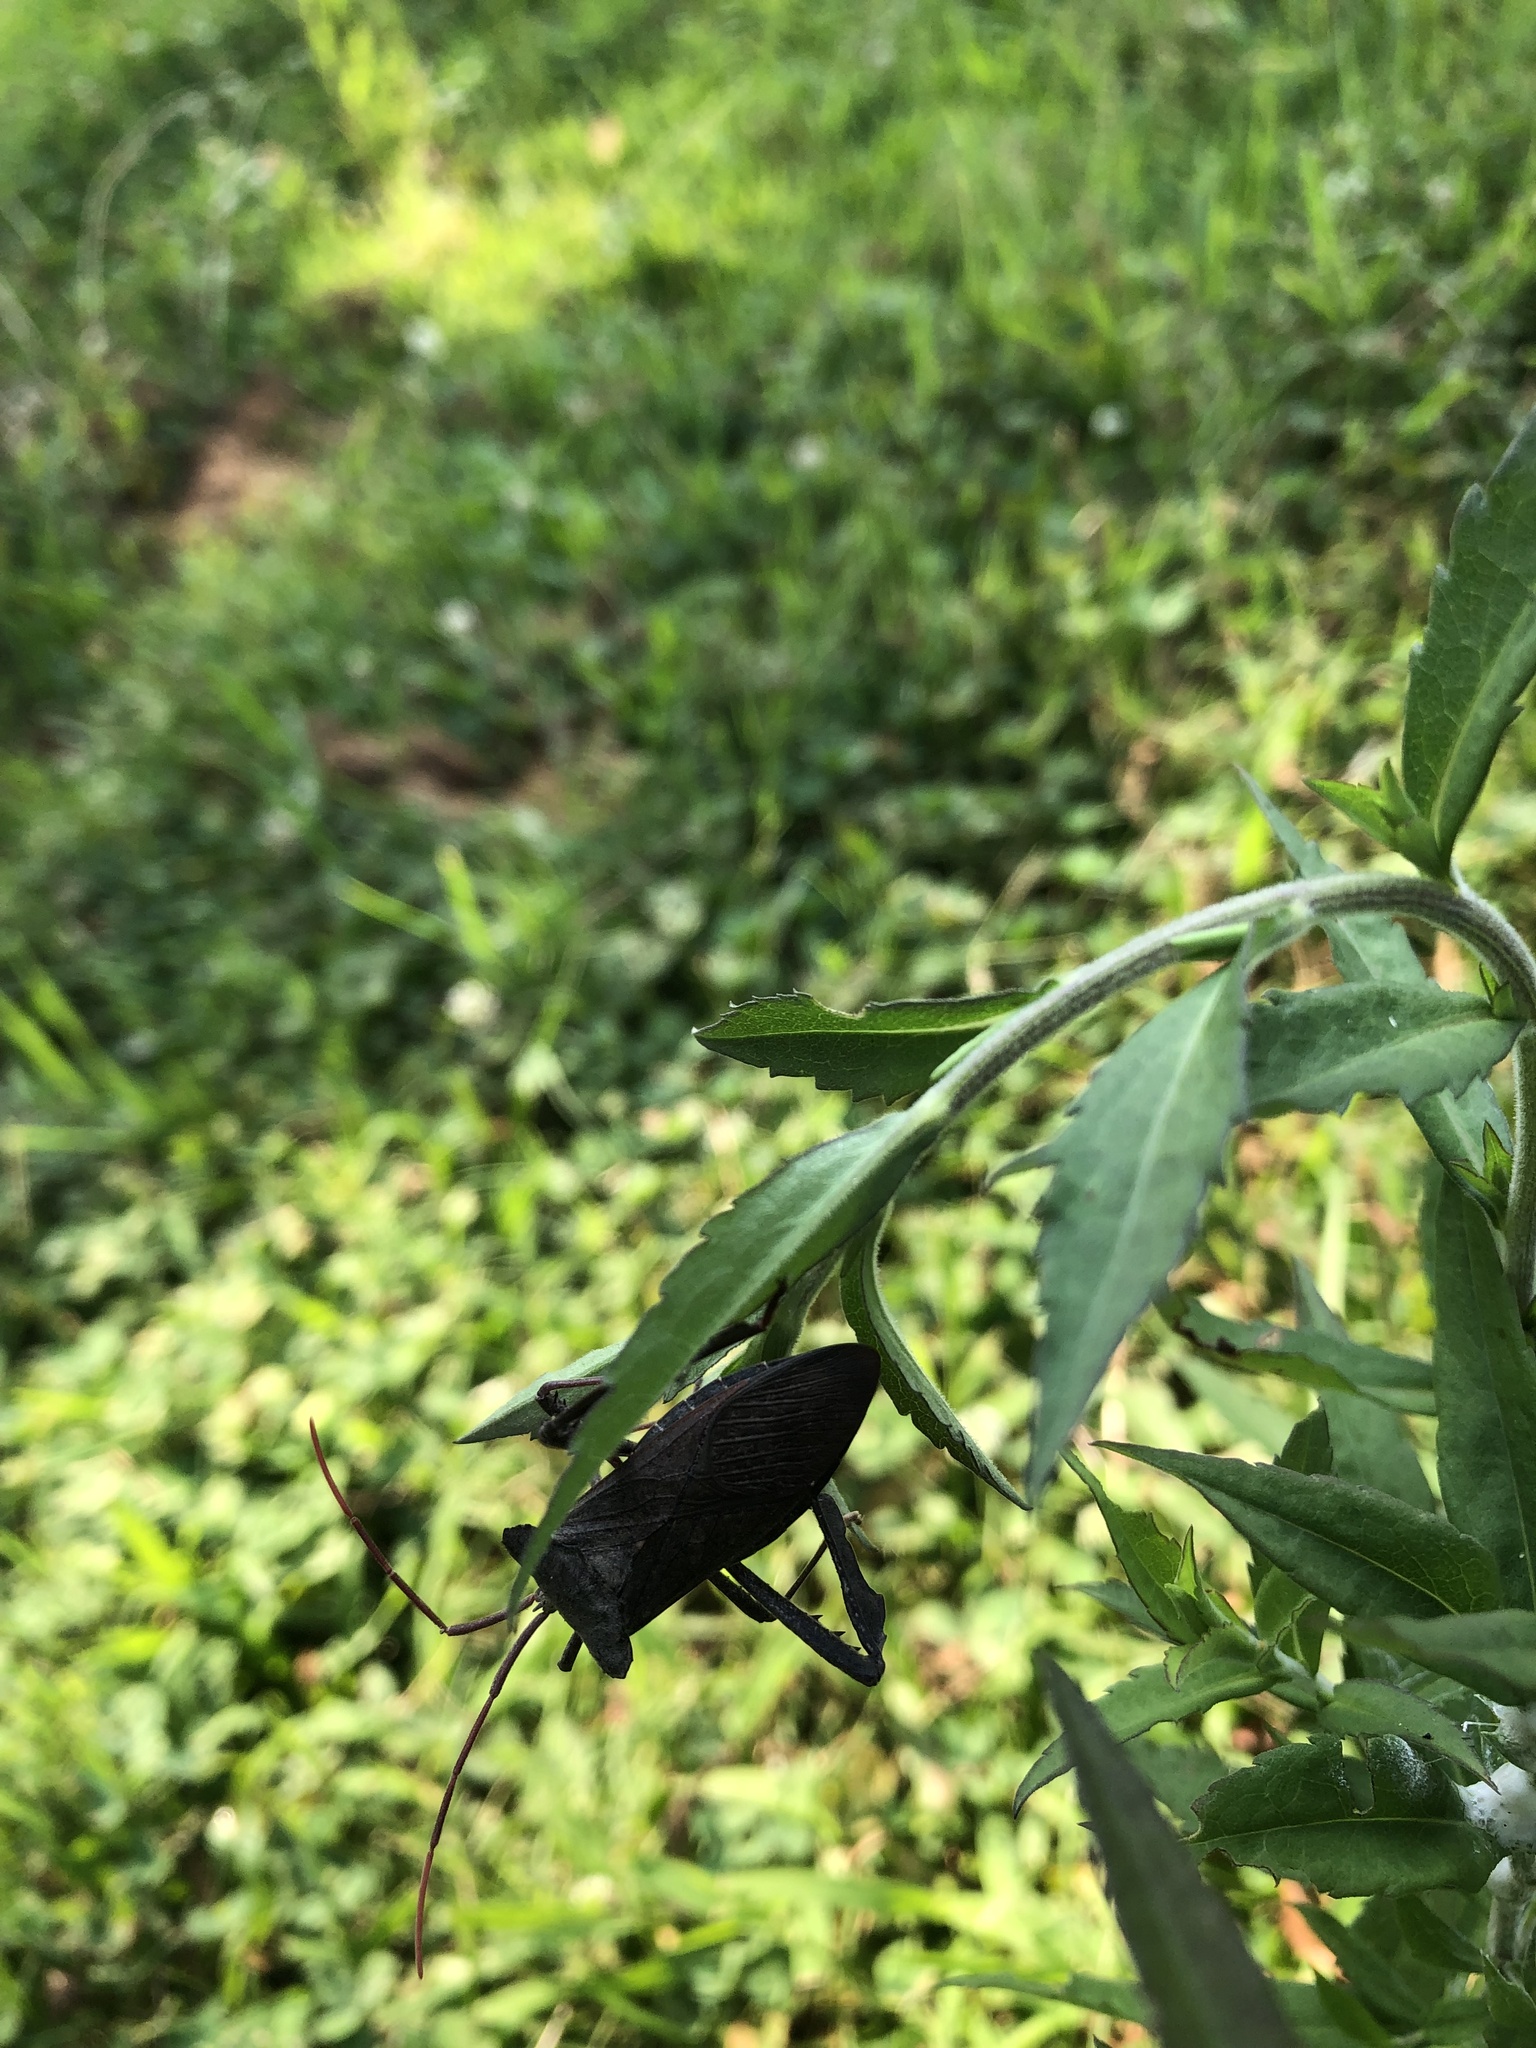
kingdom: Animalia
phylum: Arthropoda
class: Insecta
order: Hemiptera
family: Coreidae
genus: Acanthocephala
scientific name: Acanthocephala declivis
